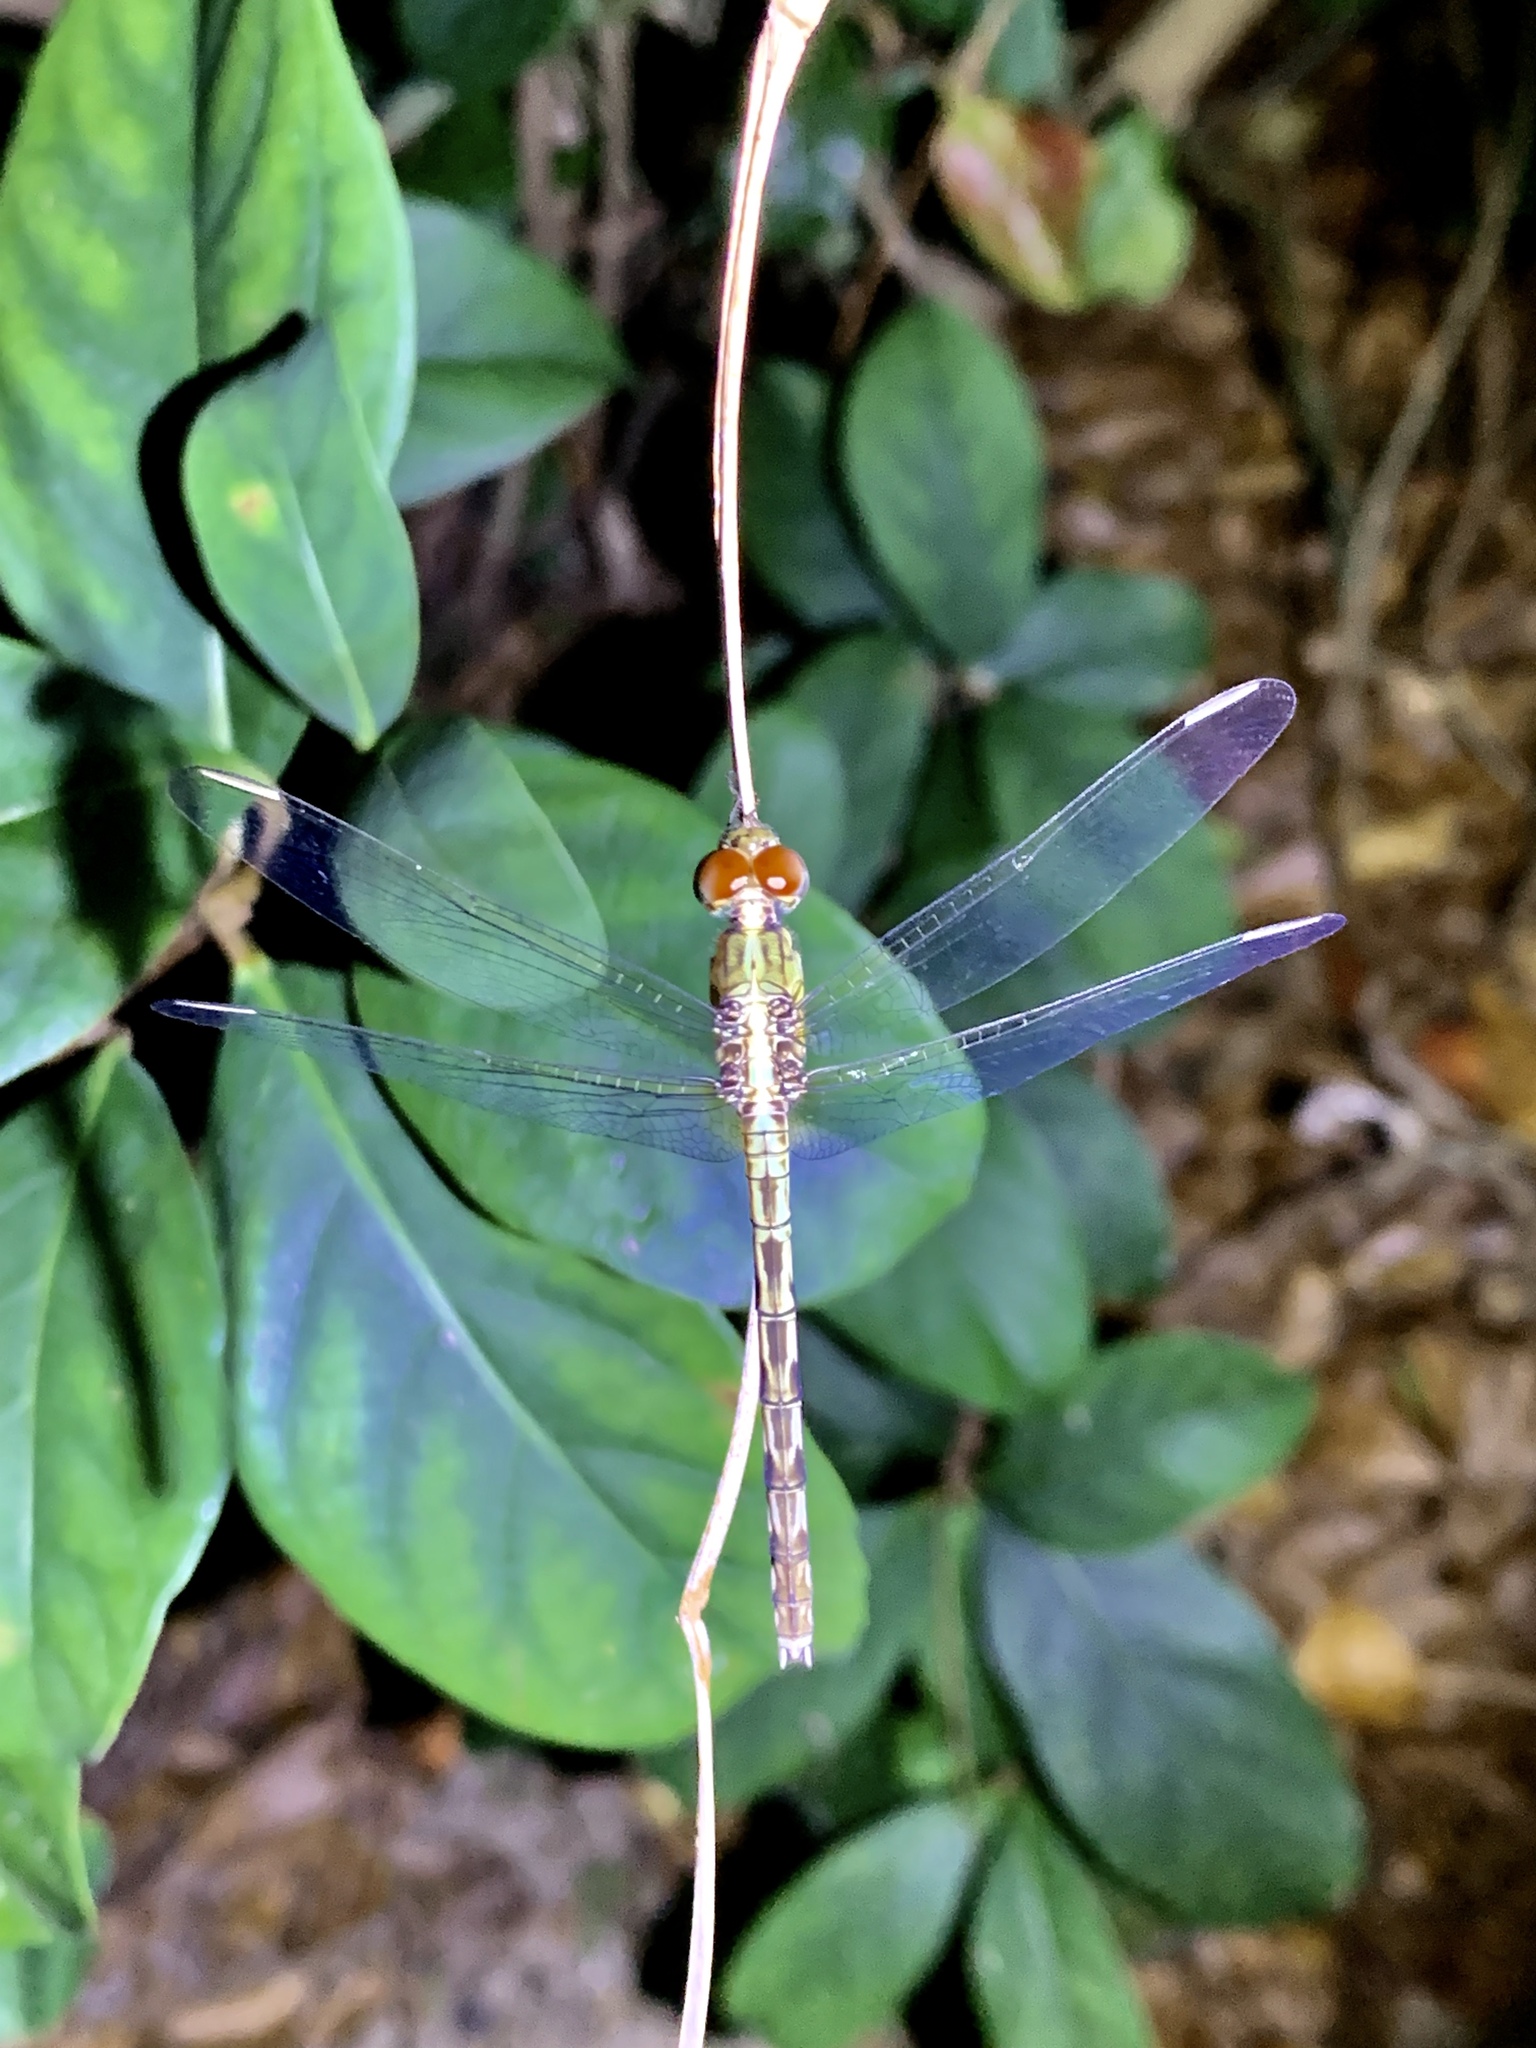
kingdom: Animalia
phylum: Arthropoda
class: Insecta
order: Odonata
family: Libellulidae
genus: Erythrodiplax
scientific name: Erythrodiplax umbrata
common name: Band-winged dragonlet
